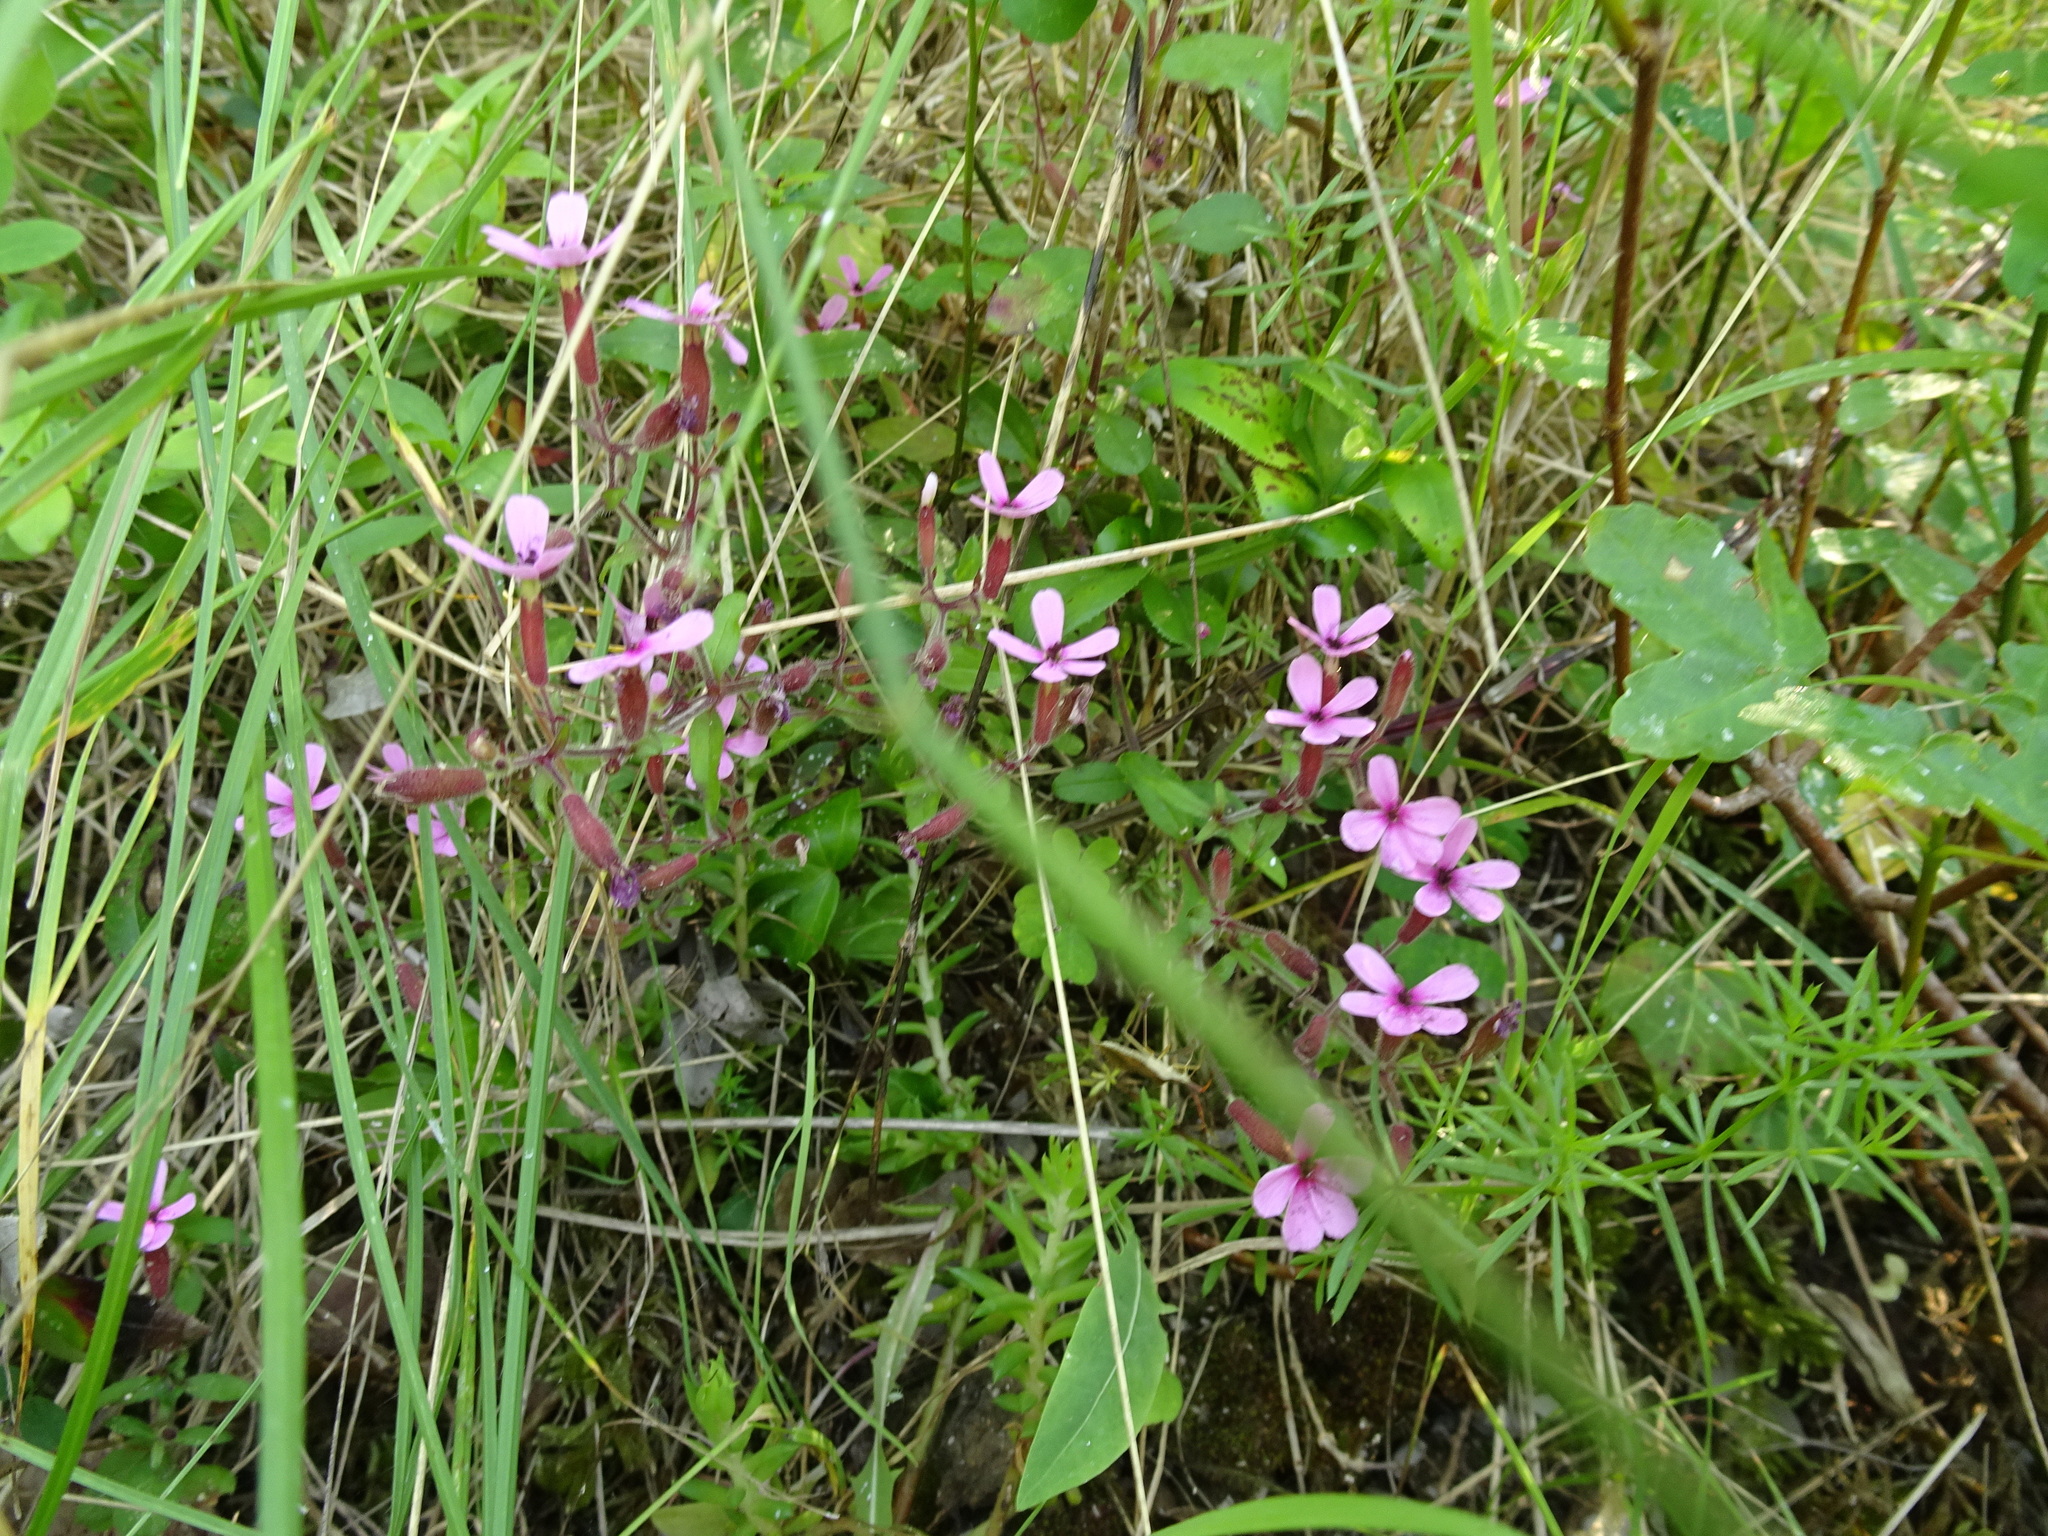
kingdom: Plantae
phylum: Tracheophyta
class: Magnoliopsida
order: Caryophyllales
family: Caryophyllaceae
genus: Saponaria
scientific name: Saponaria ocymoides
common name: Rock soapwort
